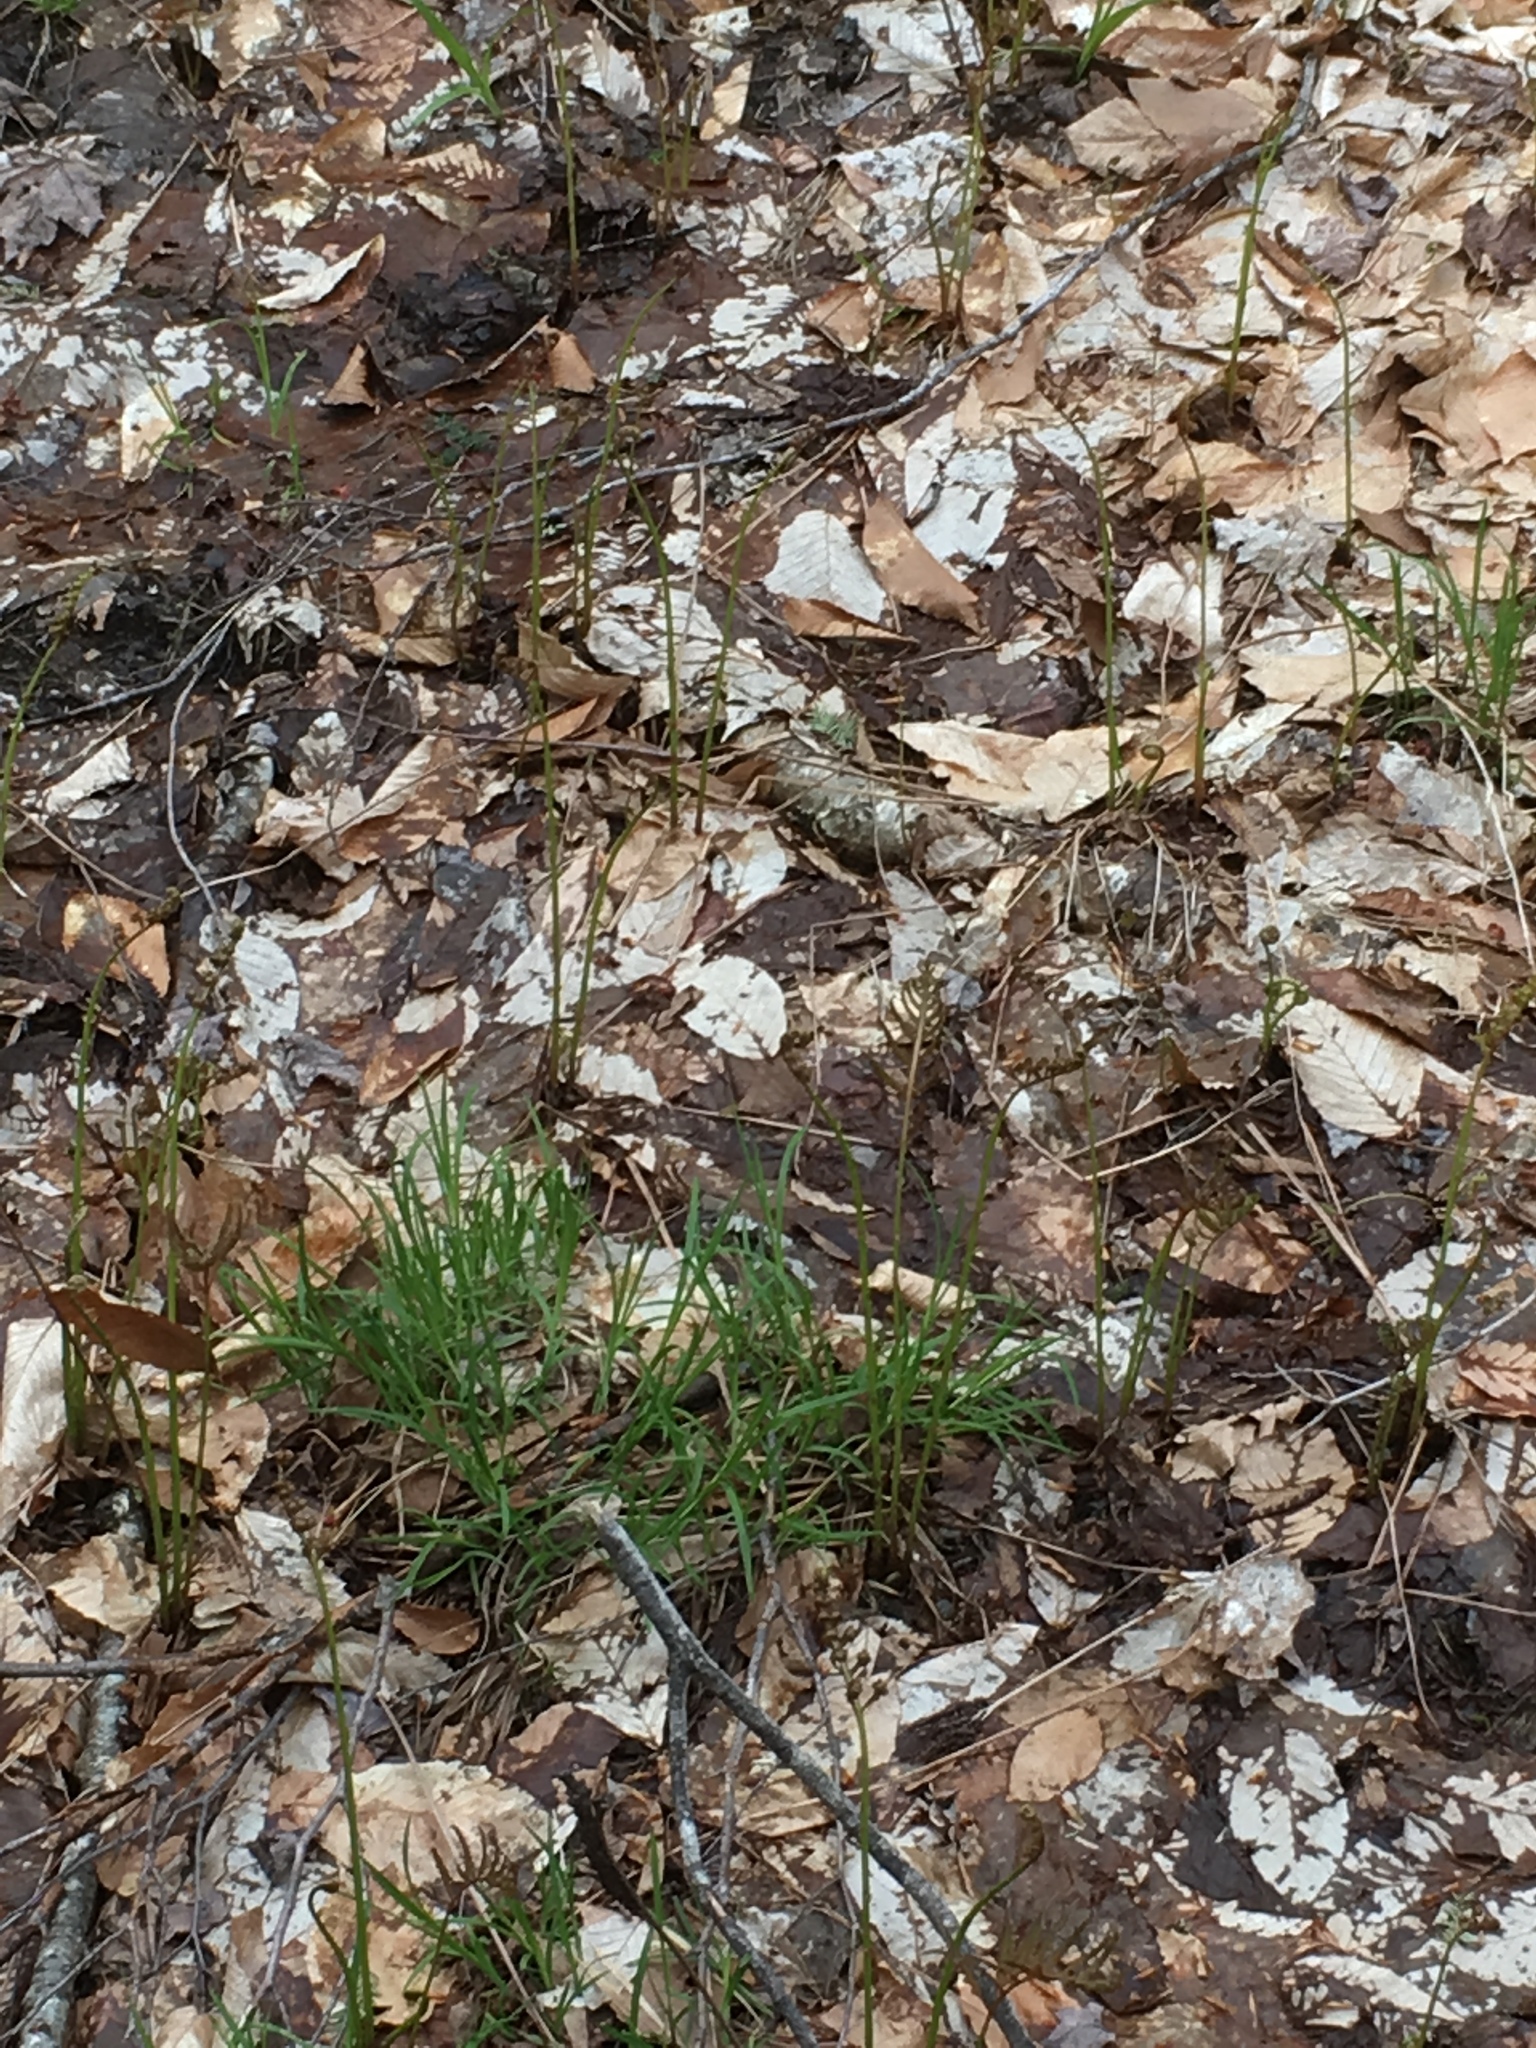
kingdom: Plantae
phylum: Tracheophyta
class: Polypodiopsida
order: Polypodiales
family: Onocleaceae
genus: Onoclea
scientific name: Onoclea sensibilis
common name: Sensitive fern
